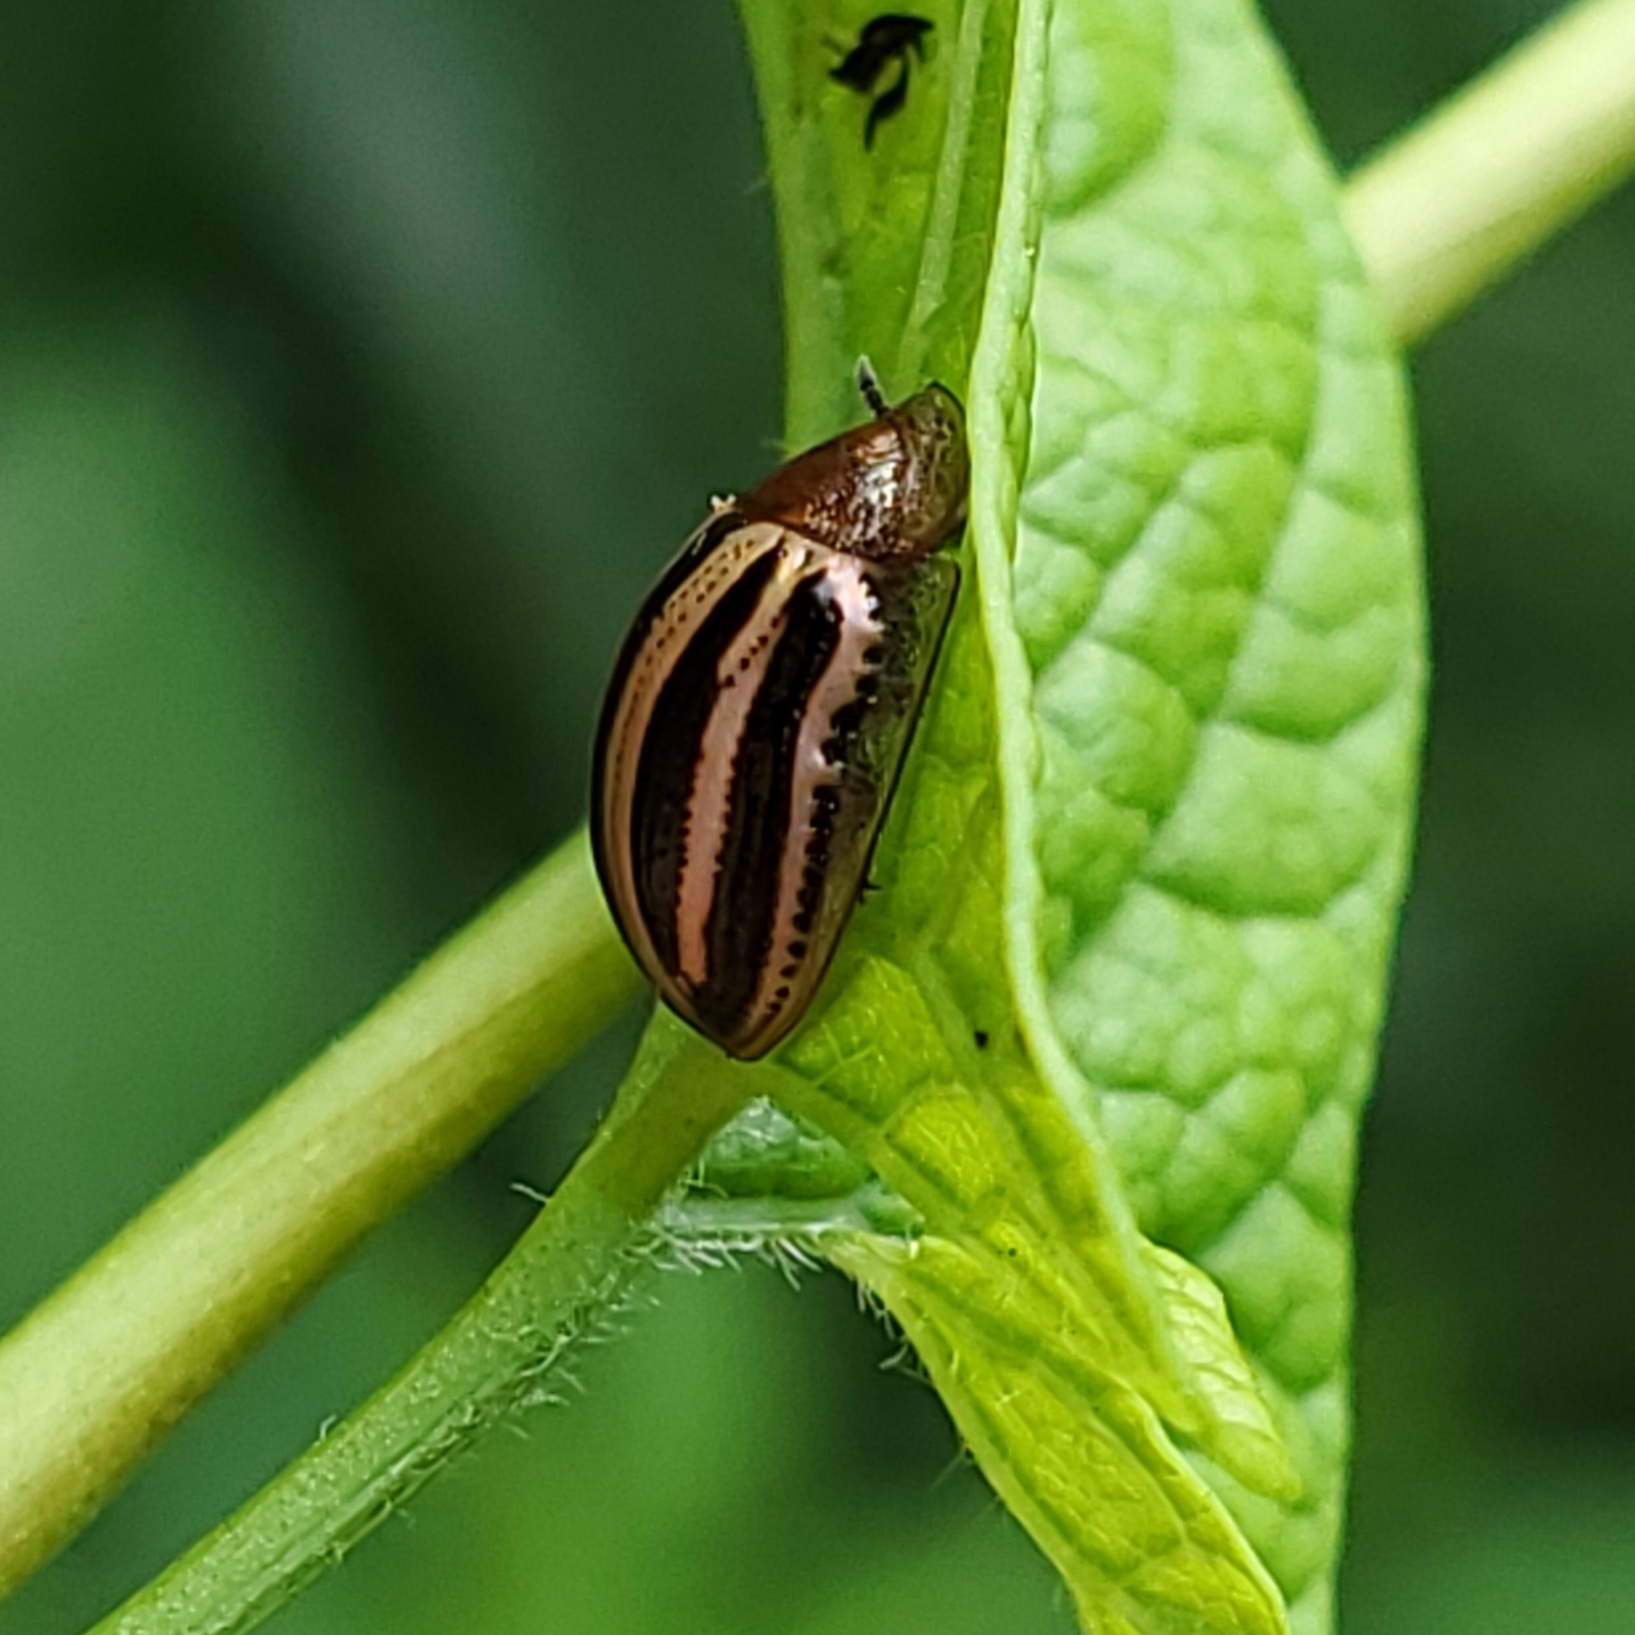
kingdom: Animalia
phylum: Arthropoda
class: Insecta
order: Coleoptera
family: Chrysomelidae
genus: Agroiconota
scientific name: Agroiconota bivittata
